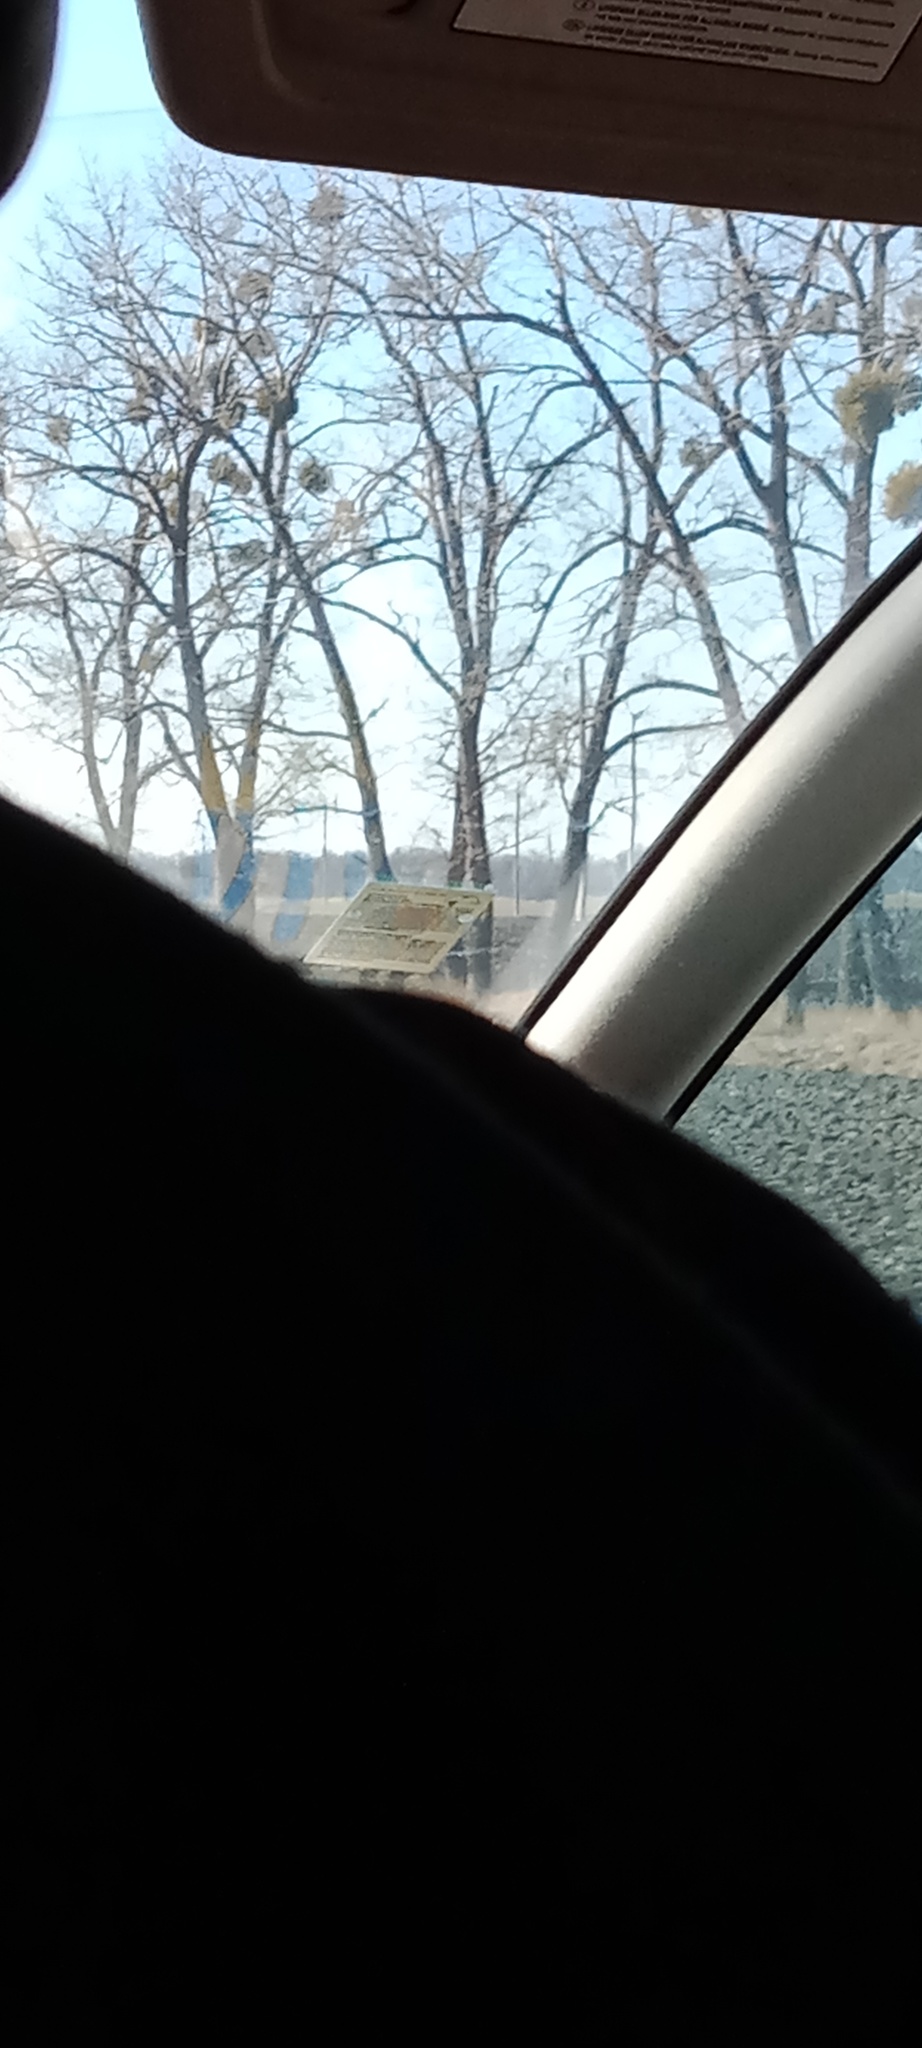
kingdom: Plantae
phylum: Tracheophyta
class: Magnoliopsida
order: Santalales
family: Viscaceae
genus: Viscum
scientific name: Viscum album
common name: Mistletoe
